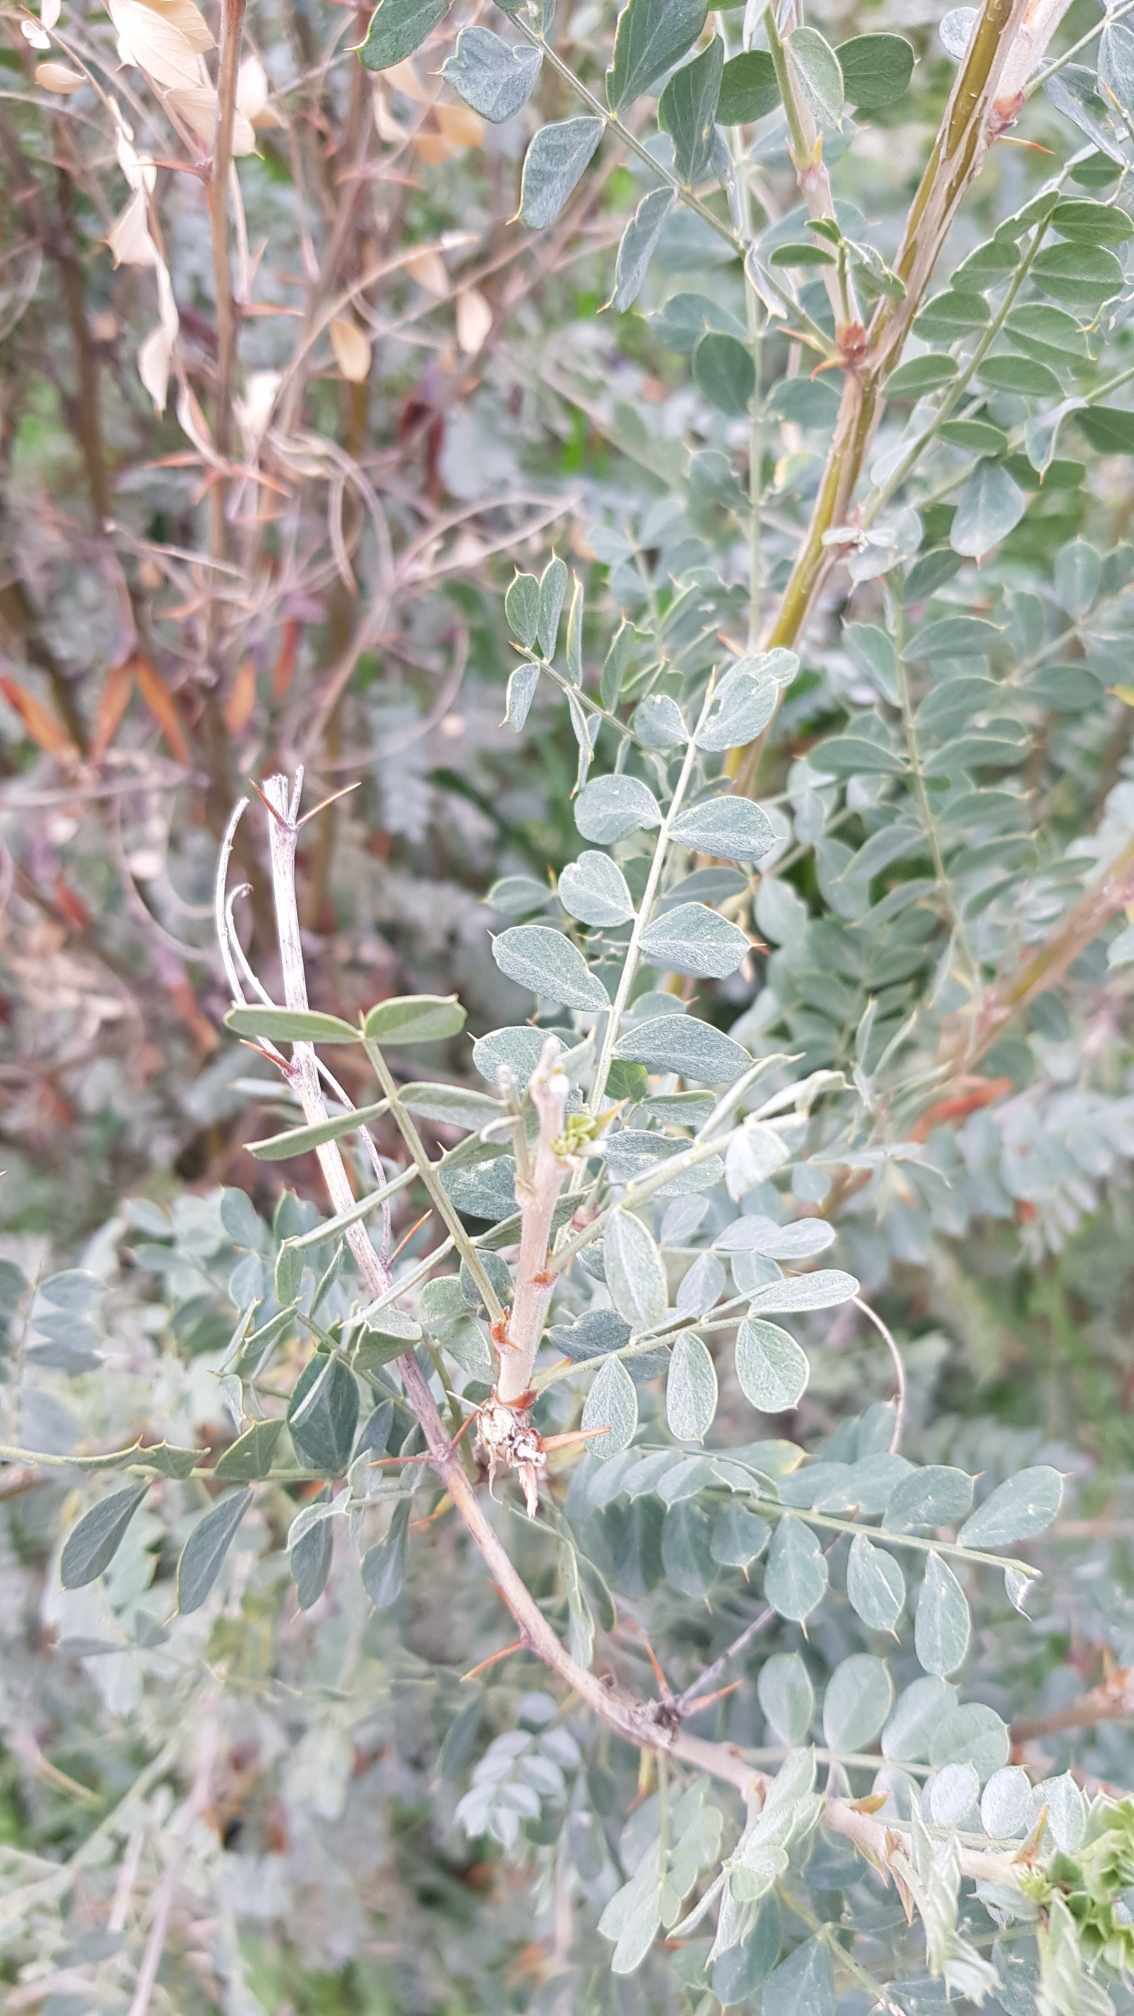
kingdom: Plantae
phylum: Tracheophyta
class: Magnoliopsida
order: Fabales
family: Fabaceae
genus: Caragana
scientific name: Caragana arborescens
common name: Siberian peashrub
